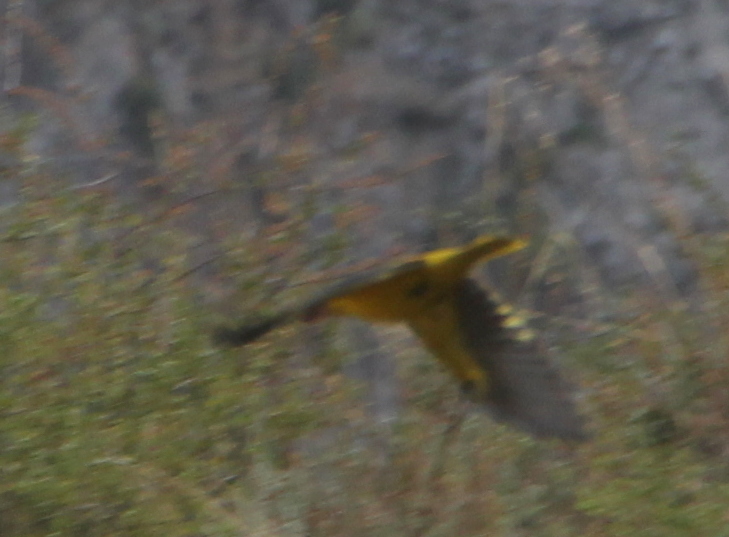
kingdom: Animalia
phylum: Chordata
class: Aves
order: Passeriformes
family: Oriolidae
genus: Oriolus
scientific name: Oriolus kundoo
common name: Indian golden oriole
